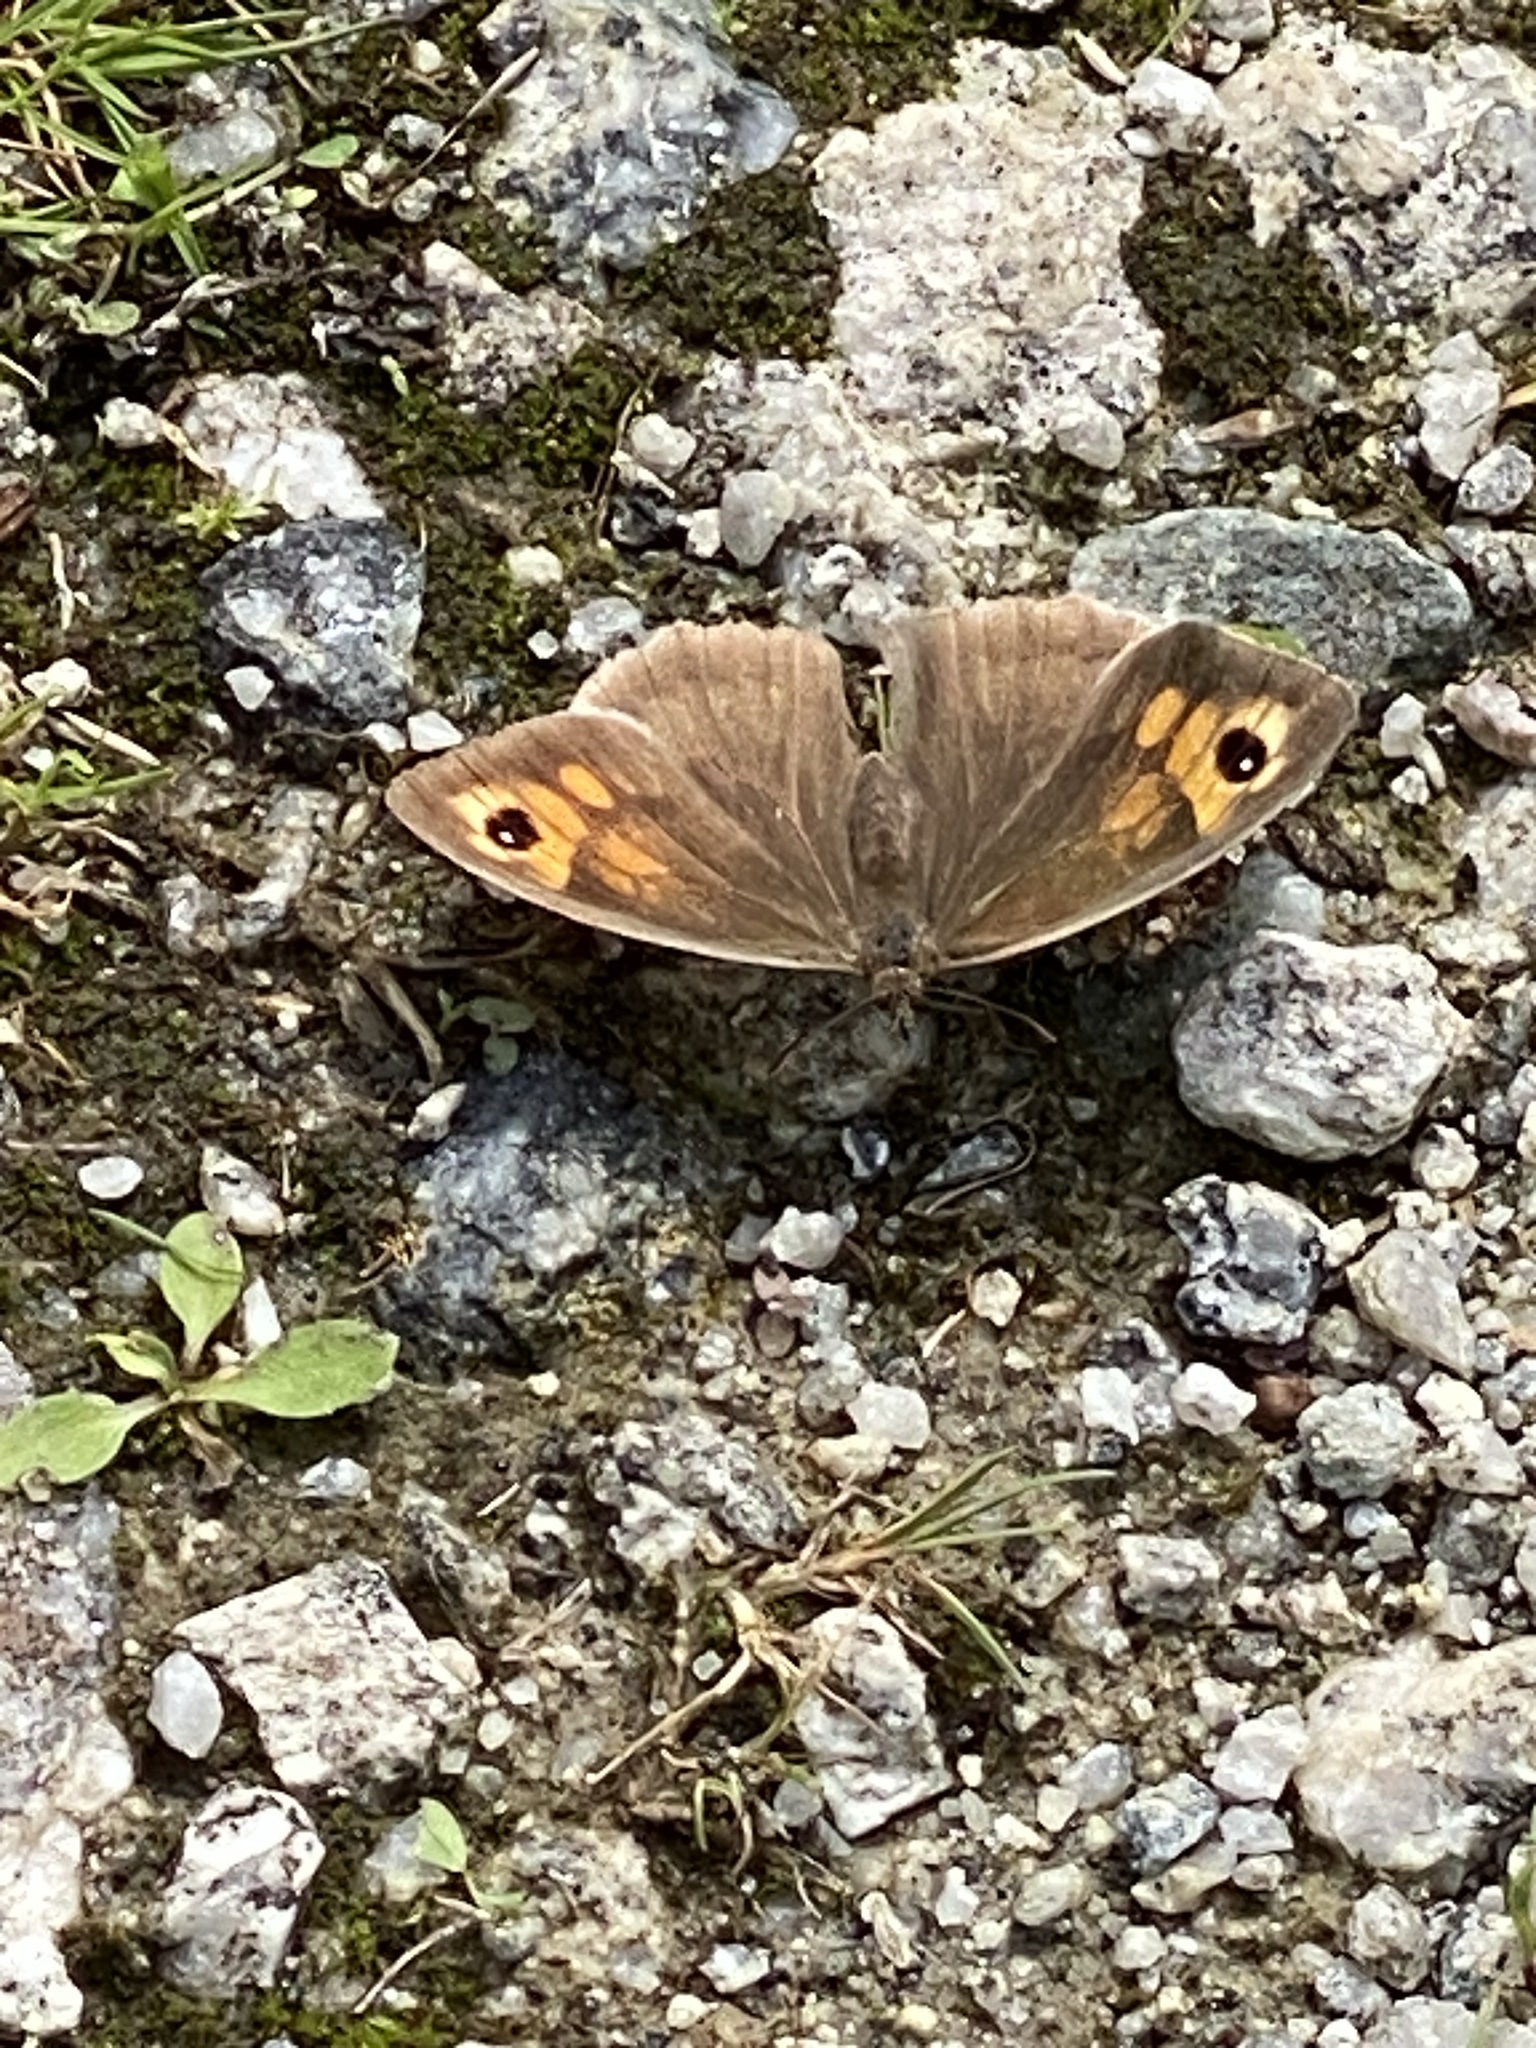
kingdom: Animalia
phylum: Arthropoda
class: Insecta
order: Lepidoptera
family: Nymphalidae
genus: Maniola
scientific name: Maniola jurtina
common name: Meadow brown
